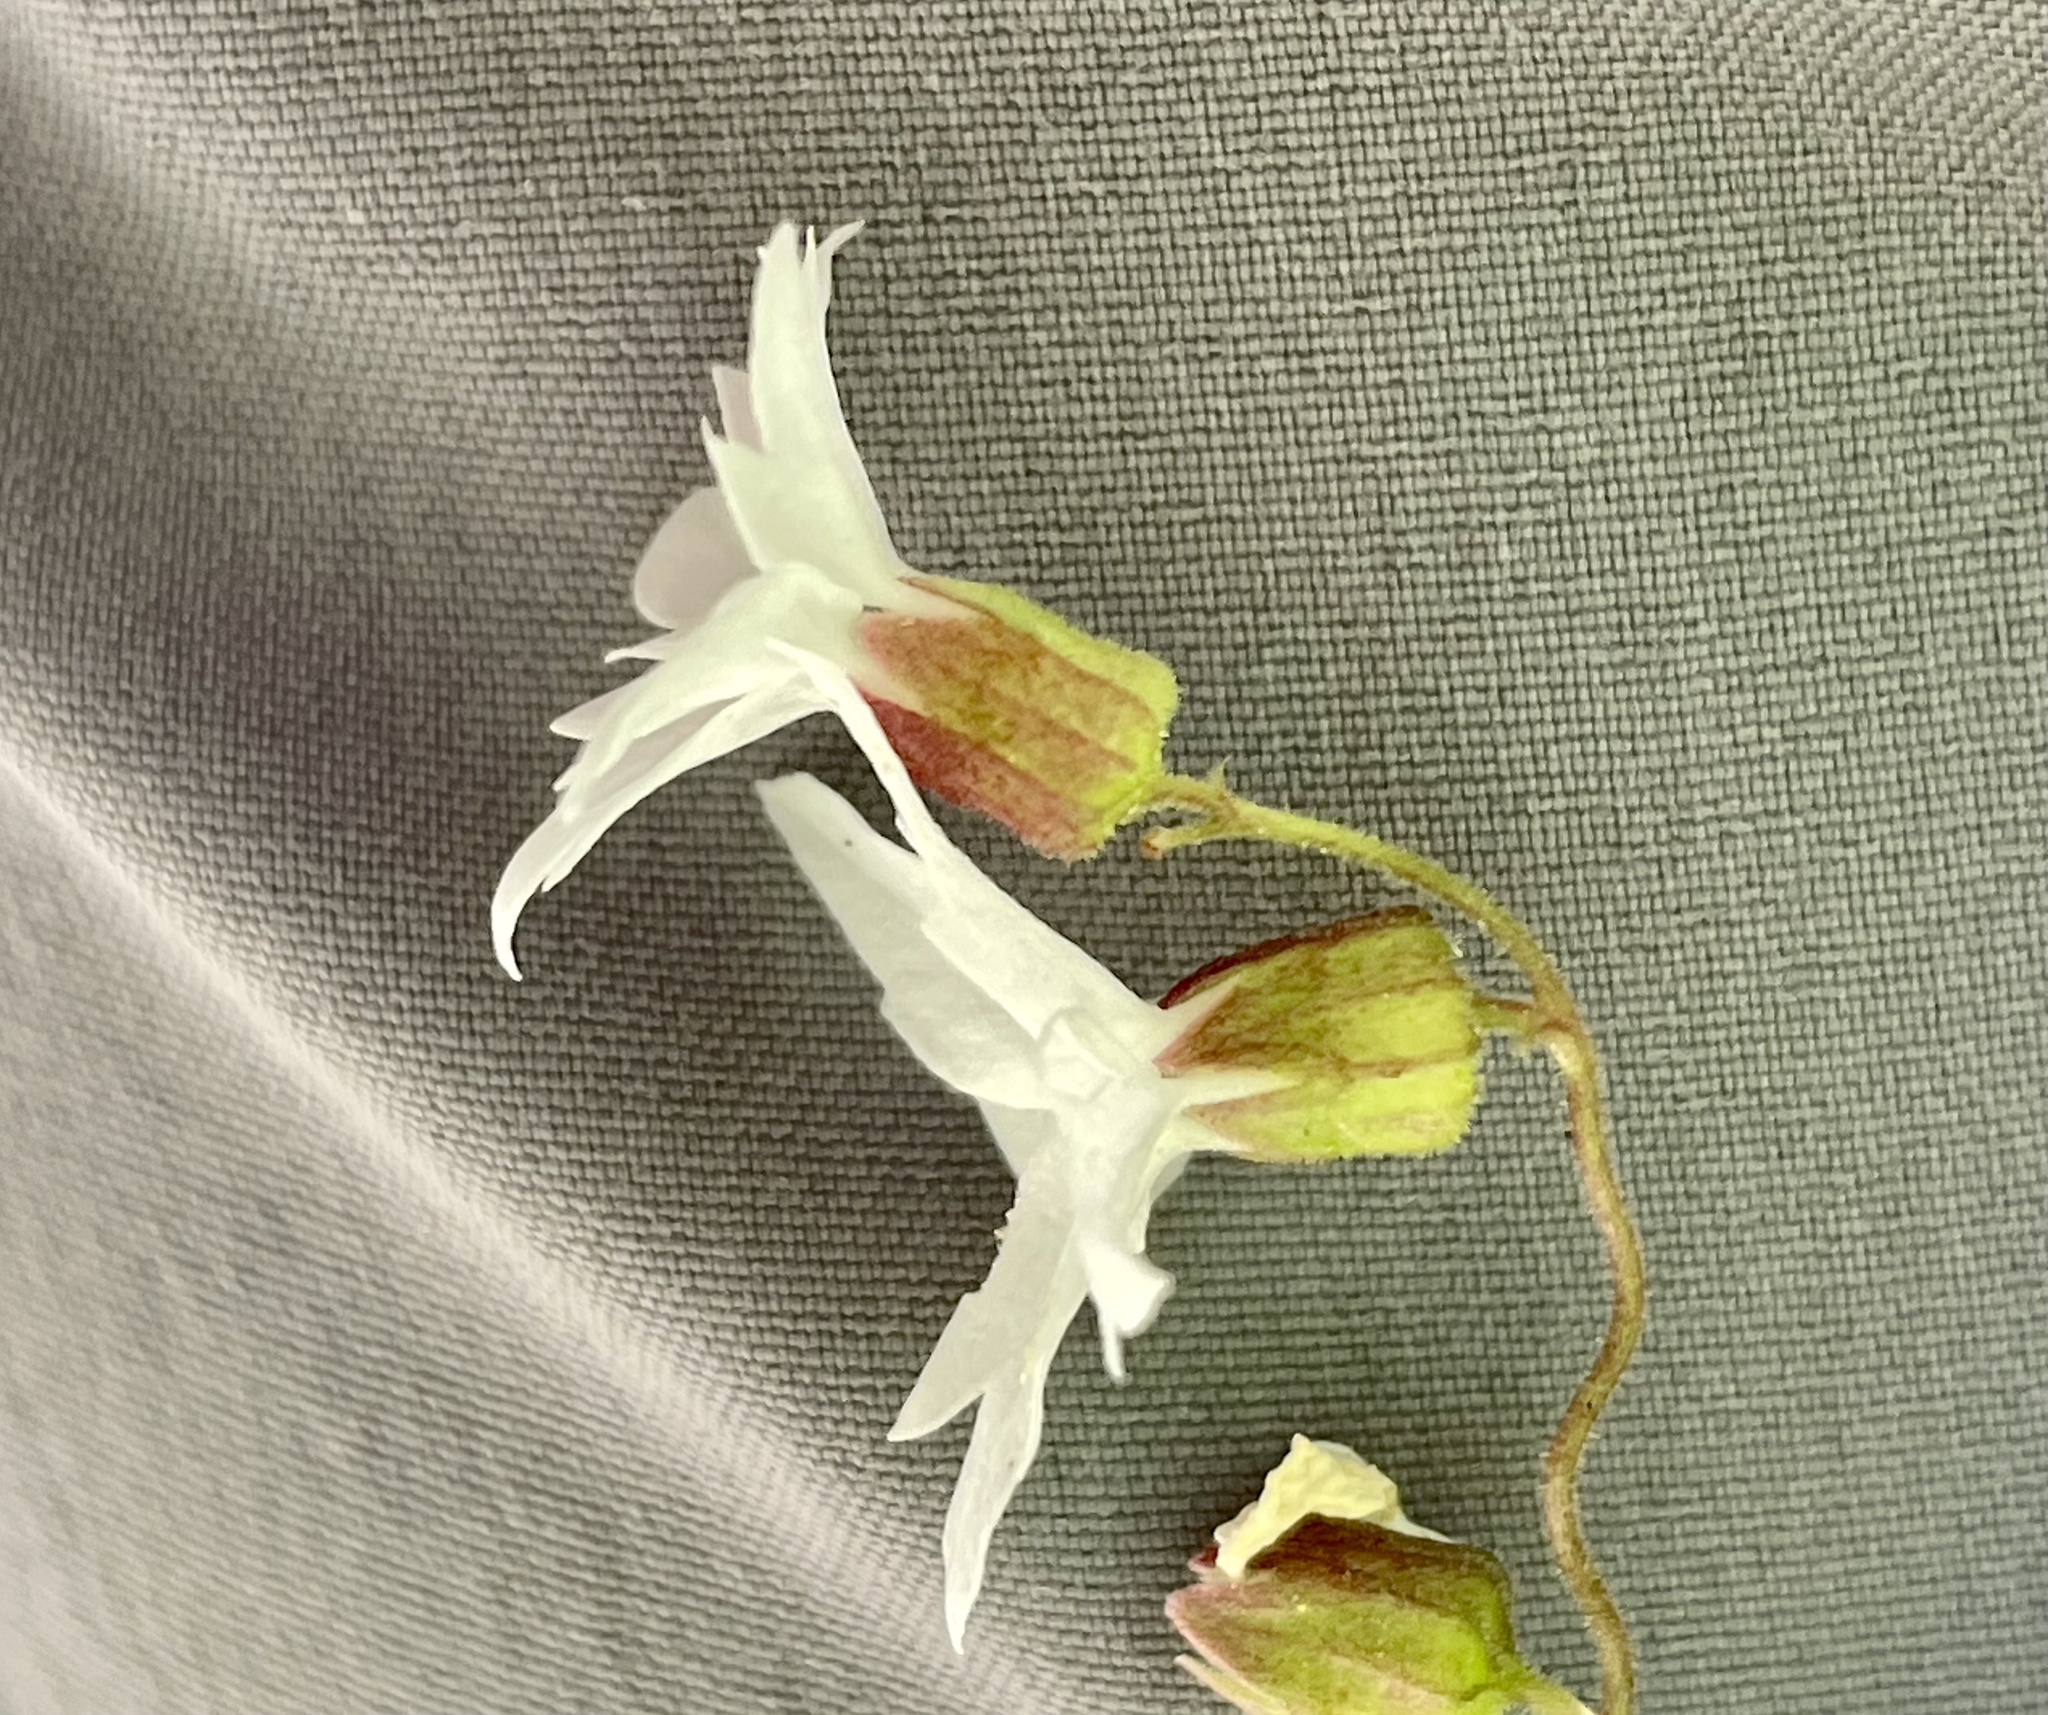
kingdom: Plantae
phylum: Tracheophyta
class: Magnoliopsida
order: Saxifragales
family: Saxifragaceae
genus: Lithophragma
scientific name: Lithophragma heterophyllum
